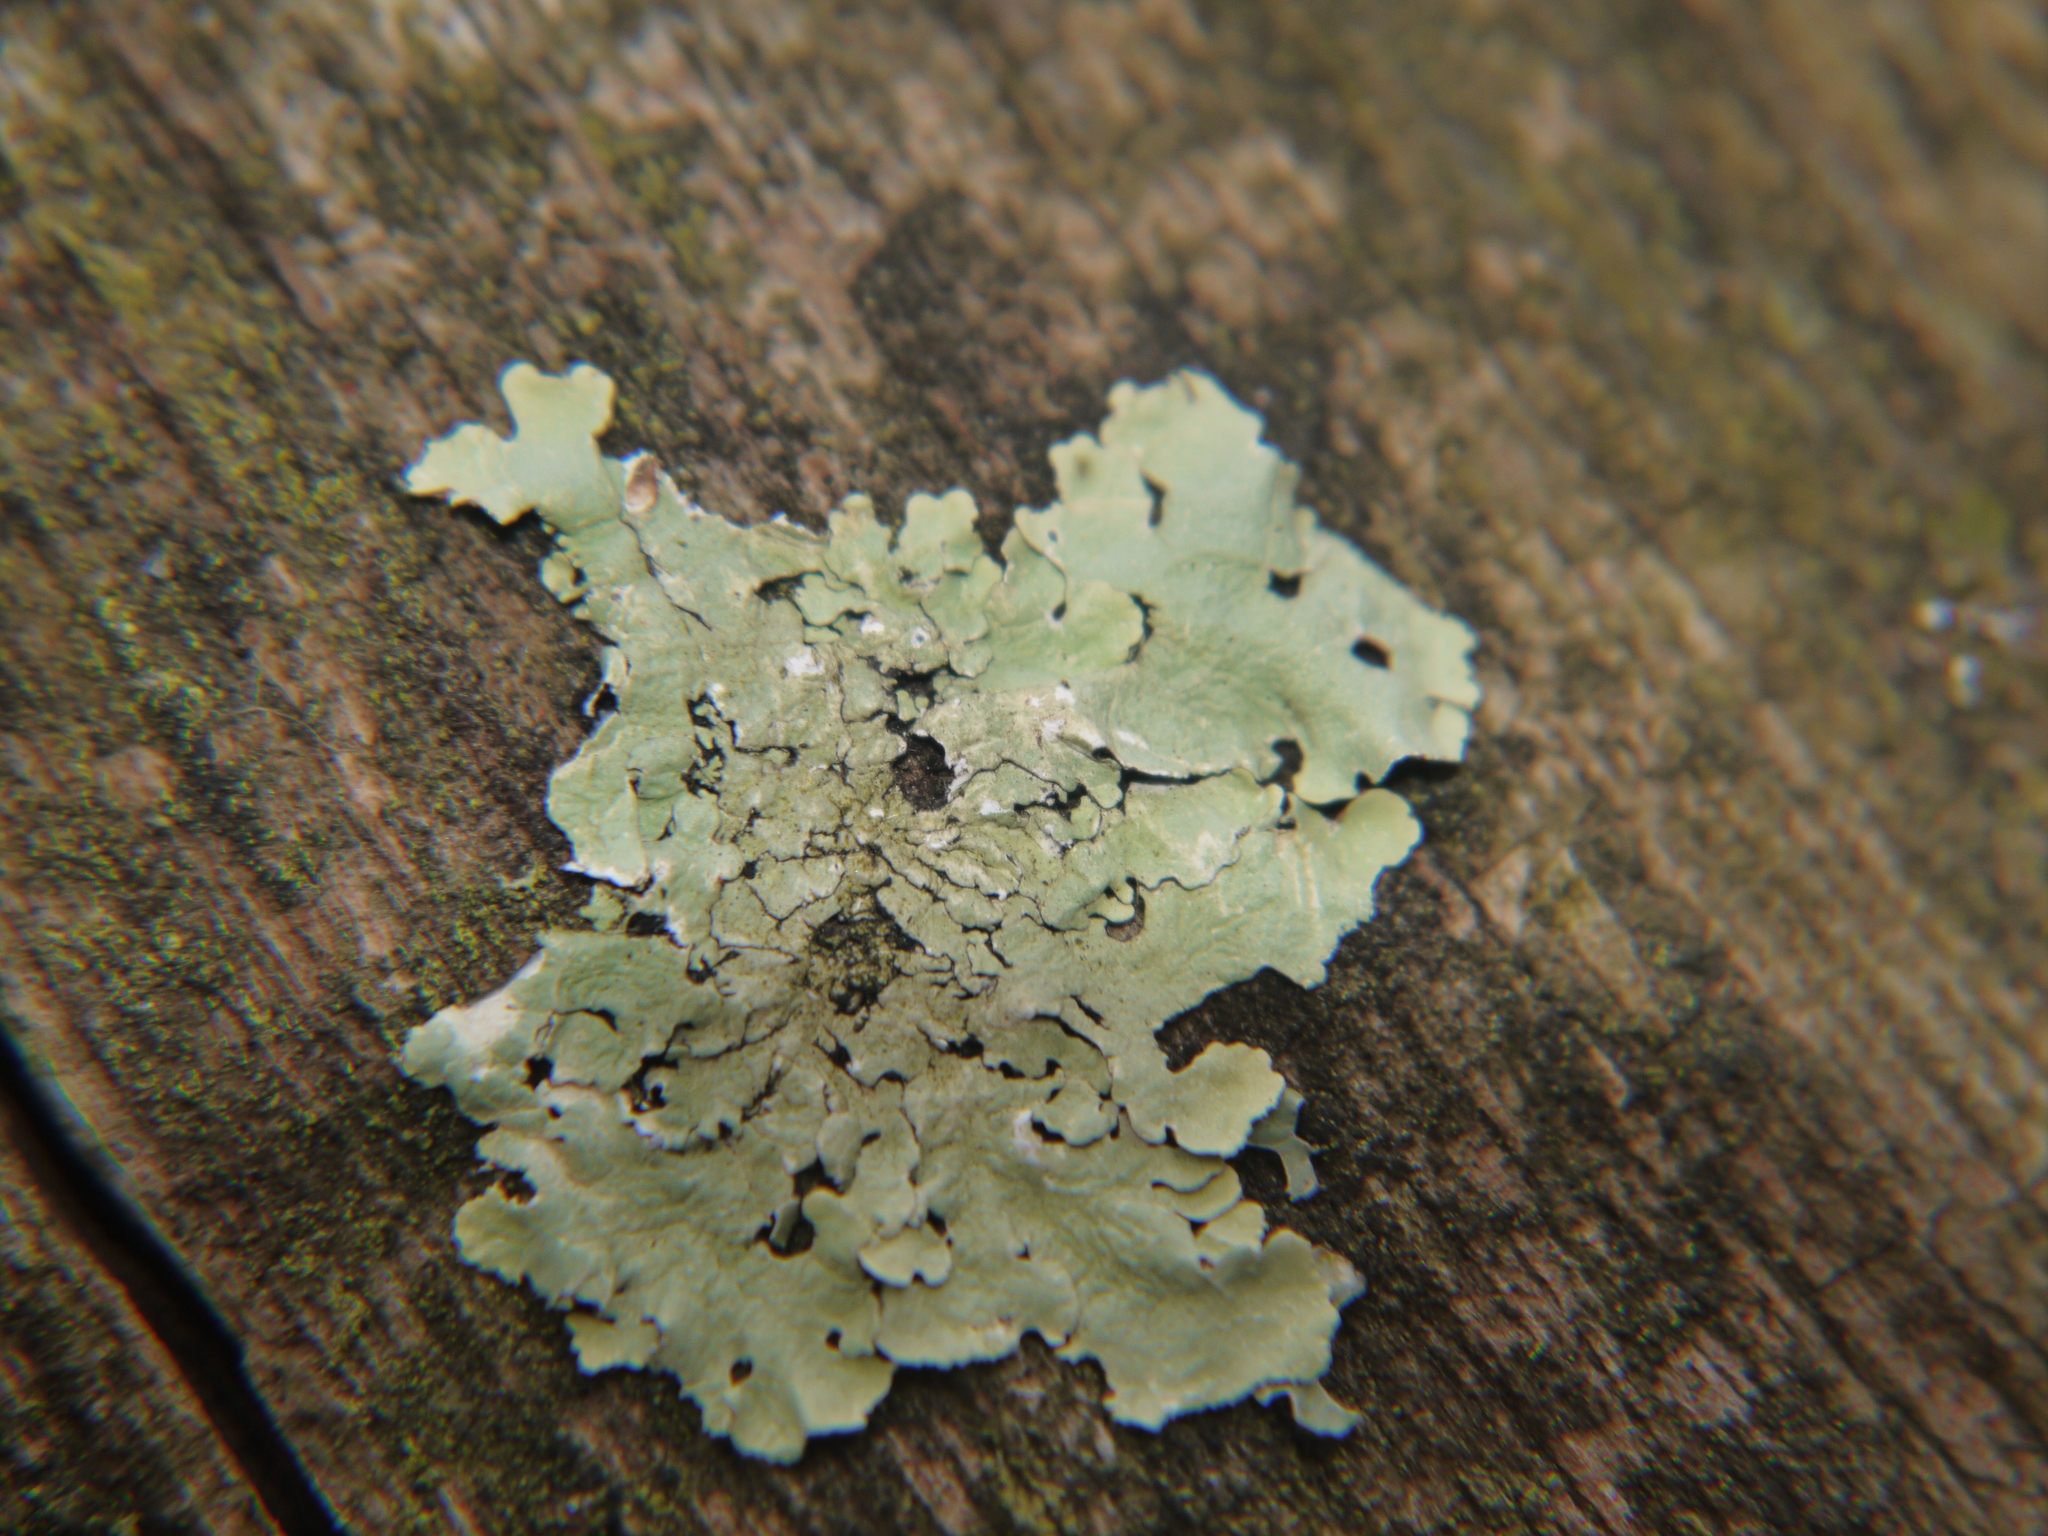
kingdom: Fungi
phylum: Ascomycota
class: Lecanoromycetes
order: Lecanorales
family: Parmeliaceae
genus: Flavoparmelia
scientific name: Flavoparmelia caperata
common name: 40-mile per hour lichen
